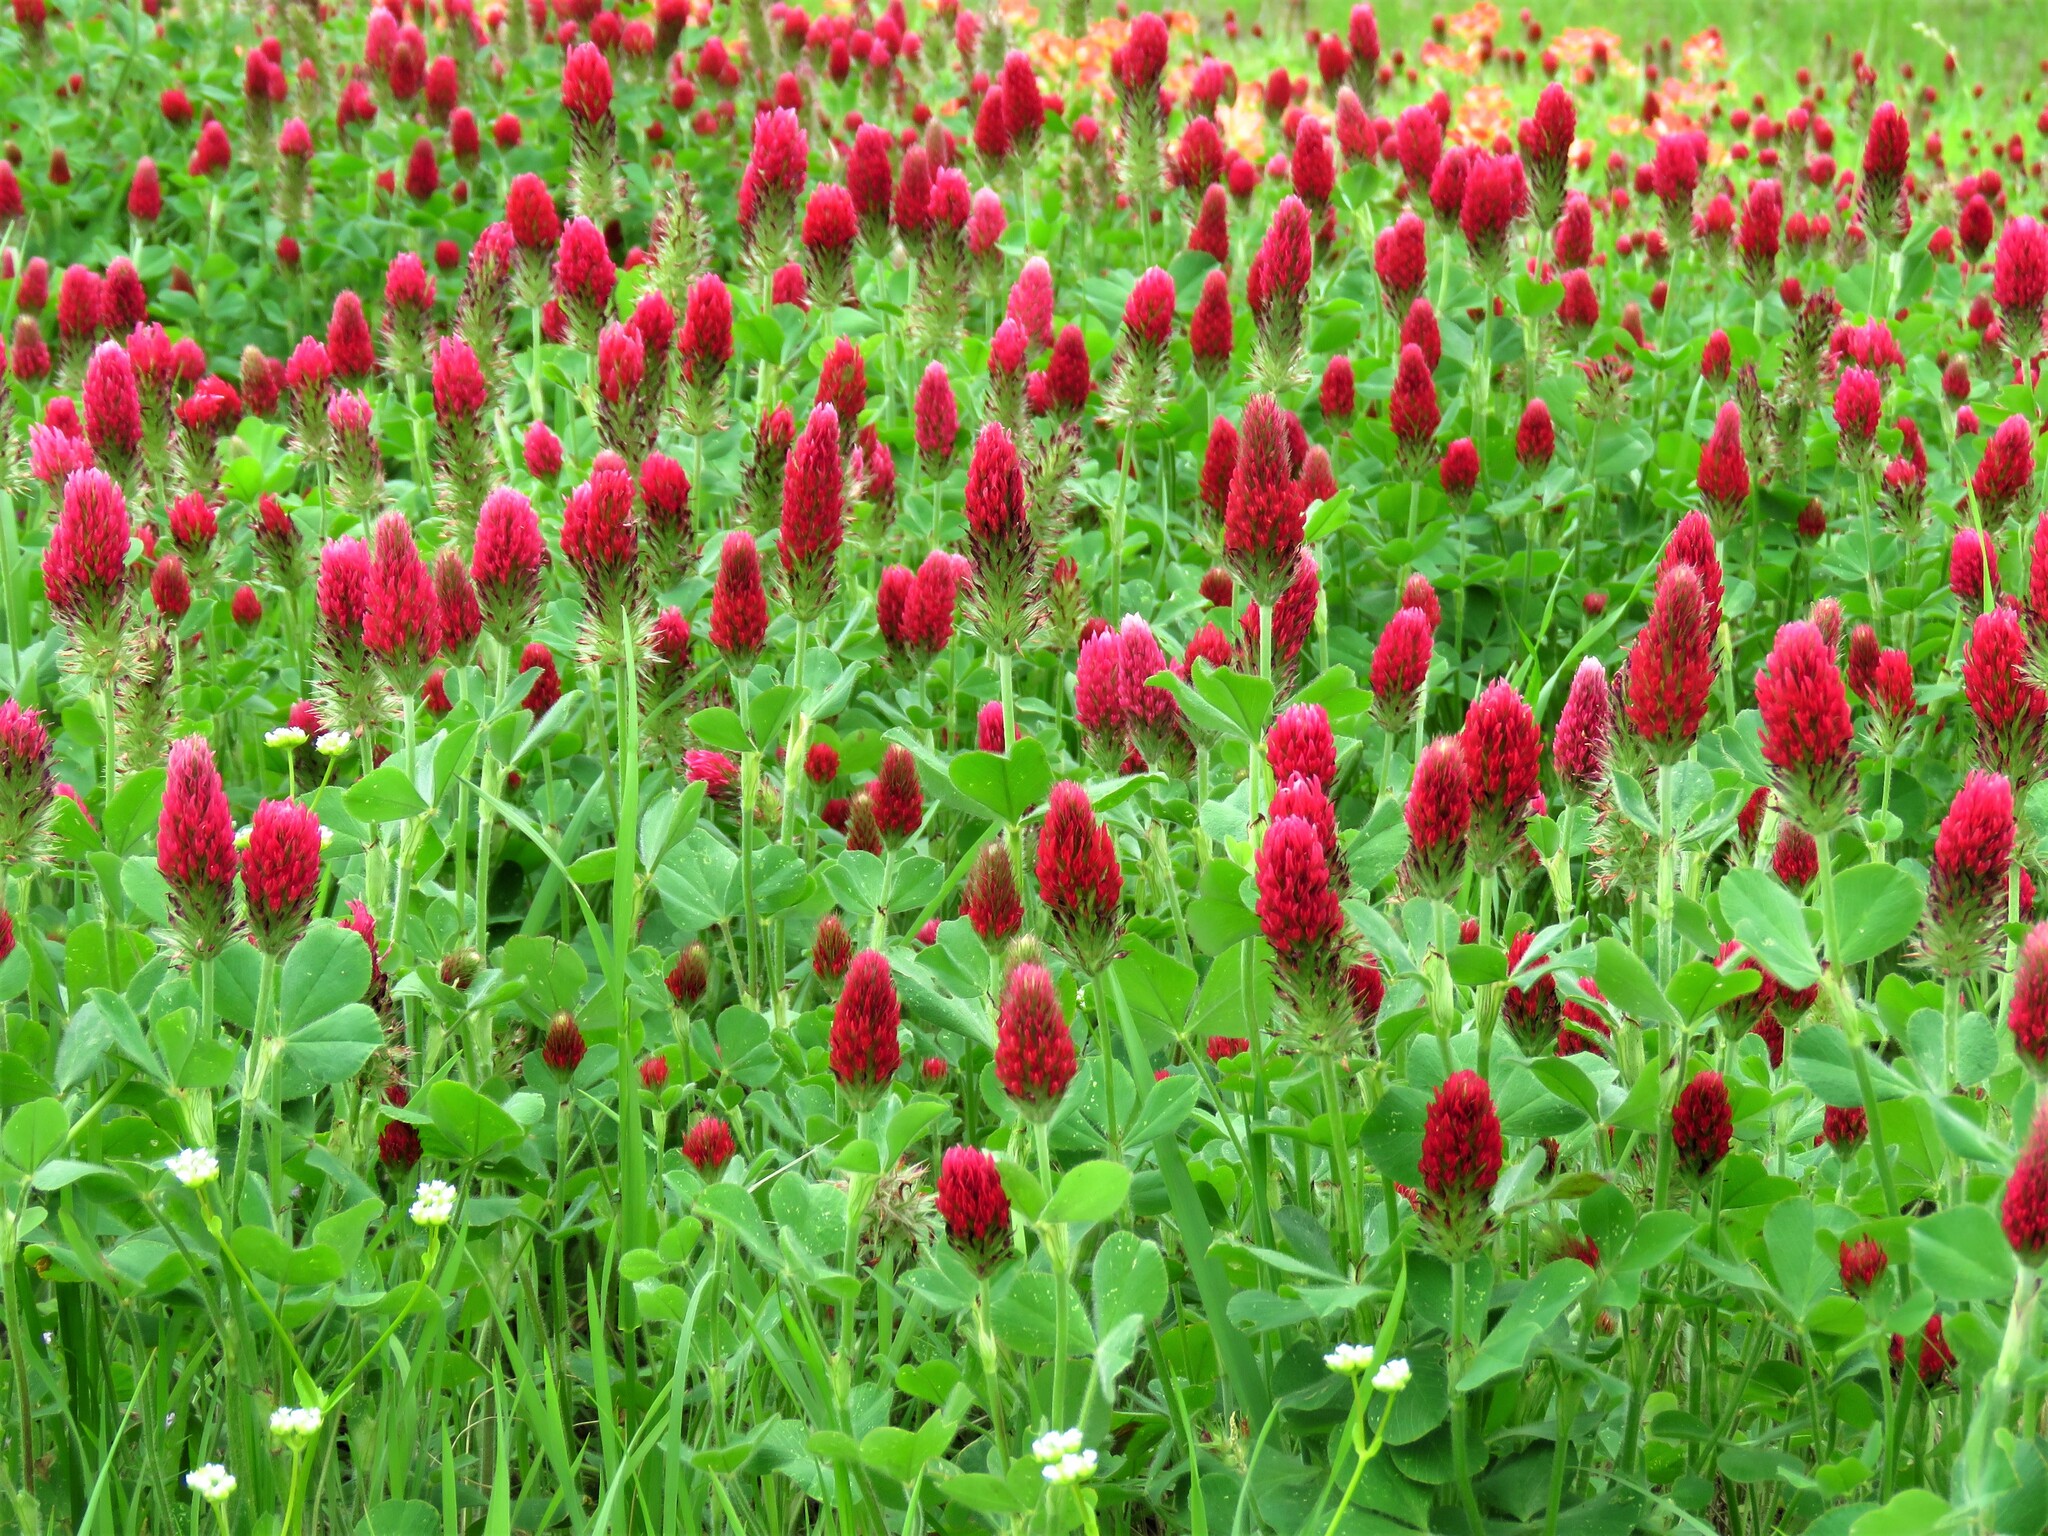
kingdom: Plantae
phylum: Tracheophyta
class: Magnoliopsida
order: Fabales
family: Fabaceae
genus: Trifolium
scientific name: Trifolium incarnatum
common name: Crimson clover
